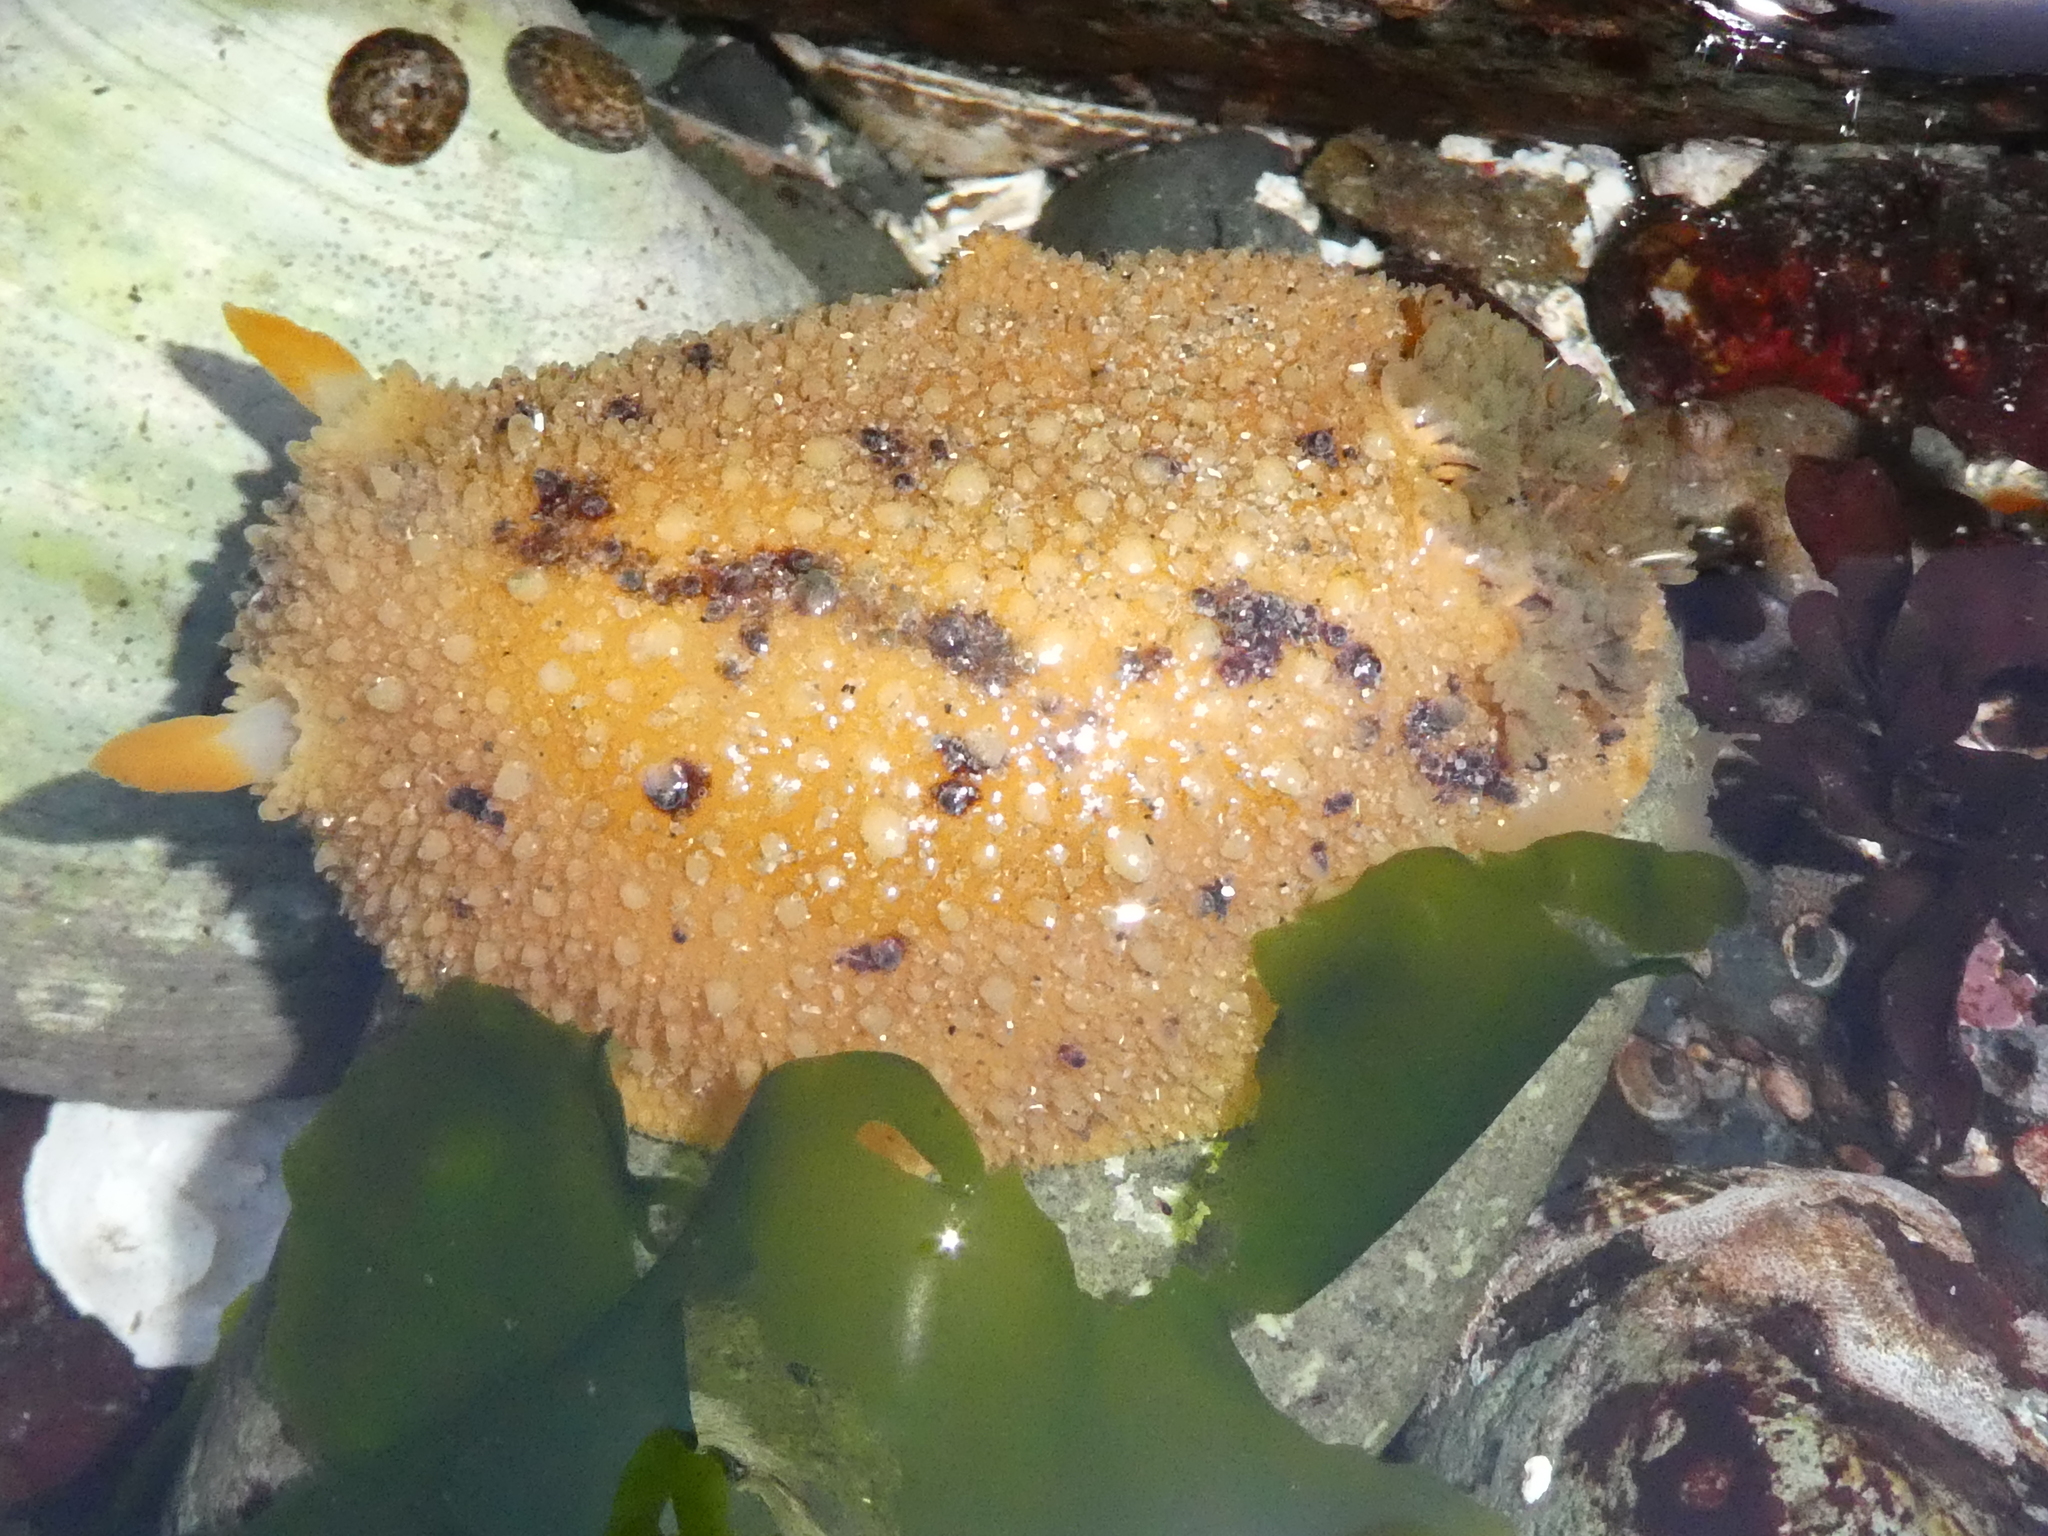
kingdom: Animalia
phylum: Mollusca
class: Gastropoda
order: Nudibranchia
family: Dorididae
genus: Doris
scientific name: Doris montereyensis
